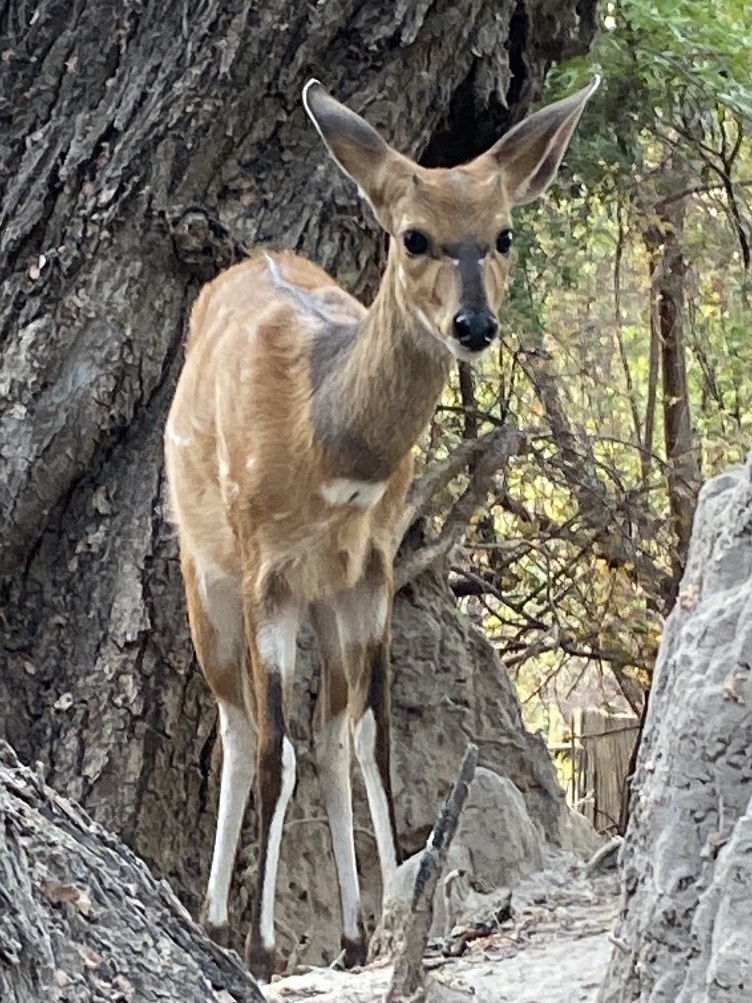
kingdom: Animalia
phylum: Chordata
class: Mammalia
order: Artiodactyla
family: Bovidae
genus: Tragelaphus
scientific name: Tragelaphus scriptus
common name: Bushbuck
